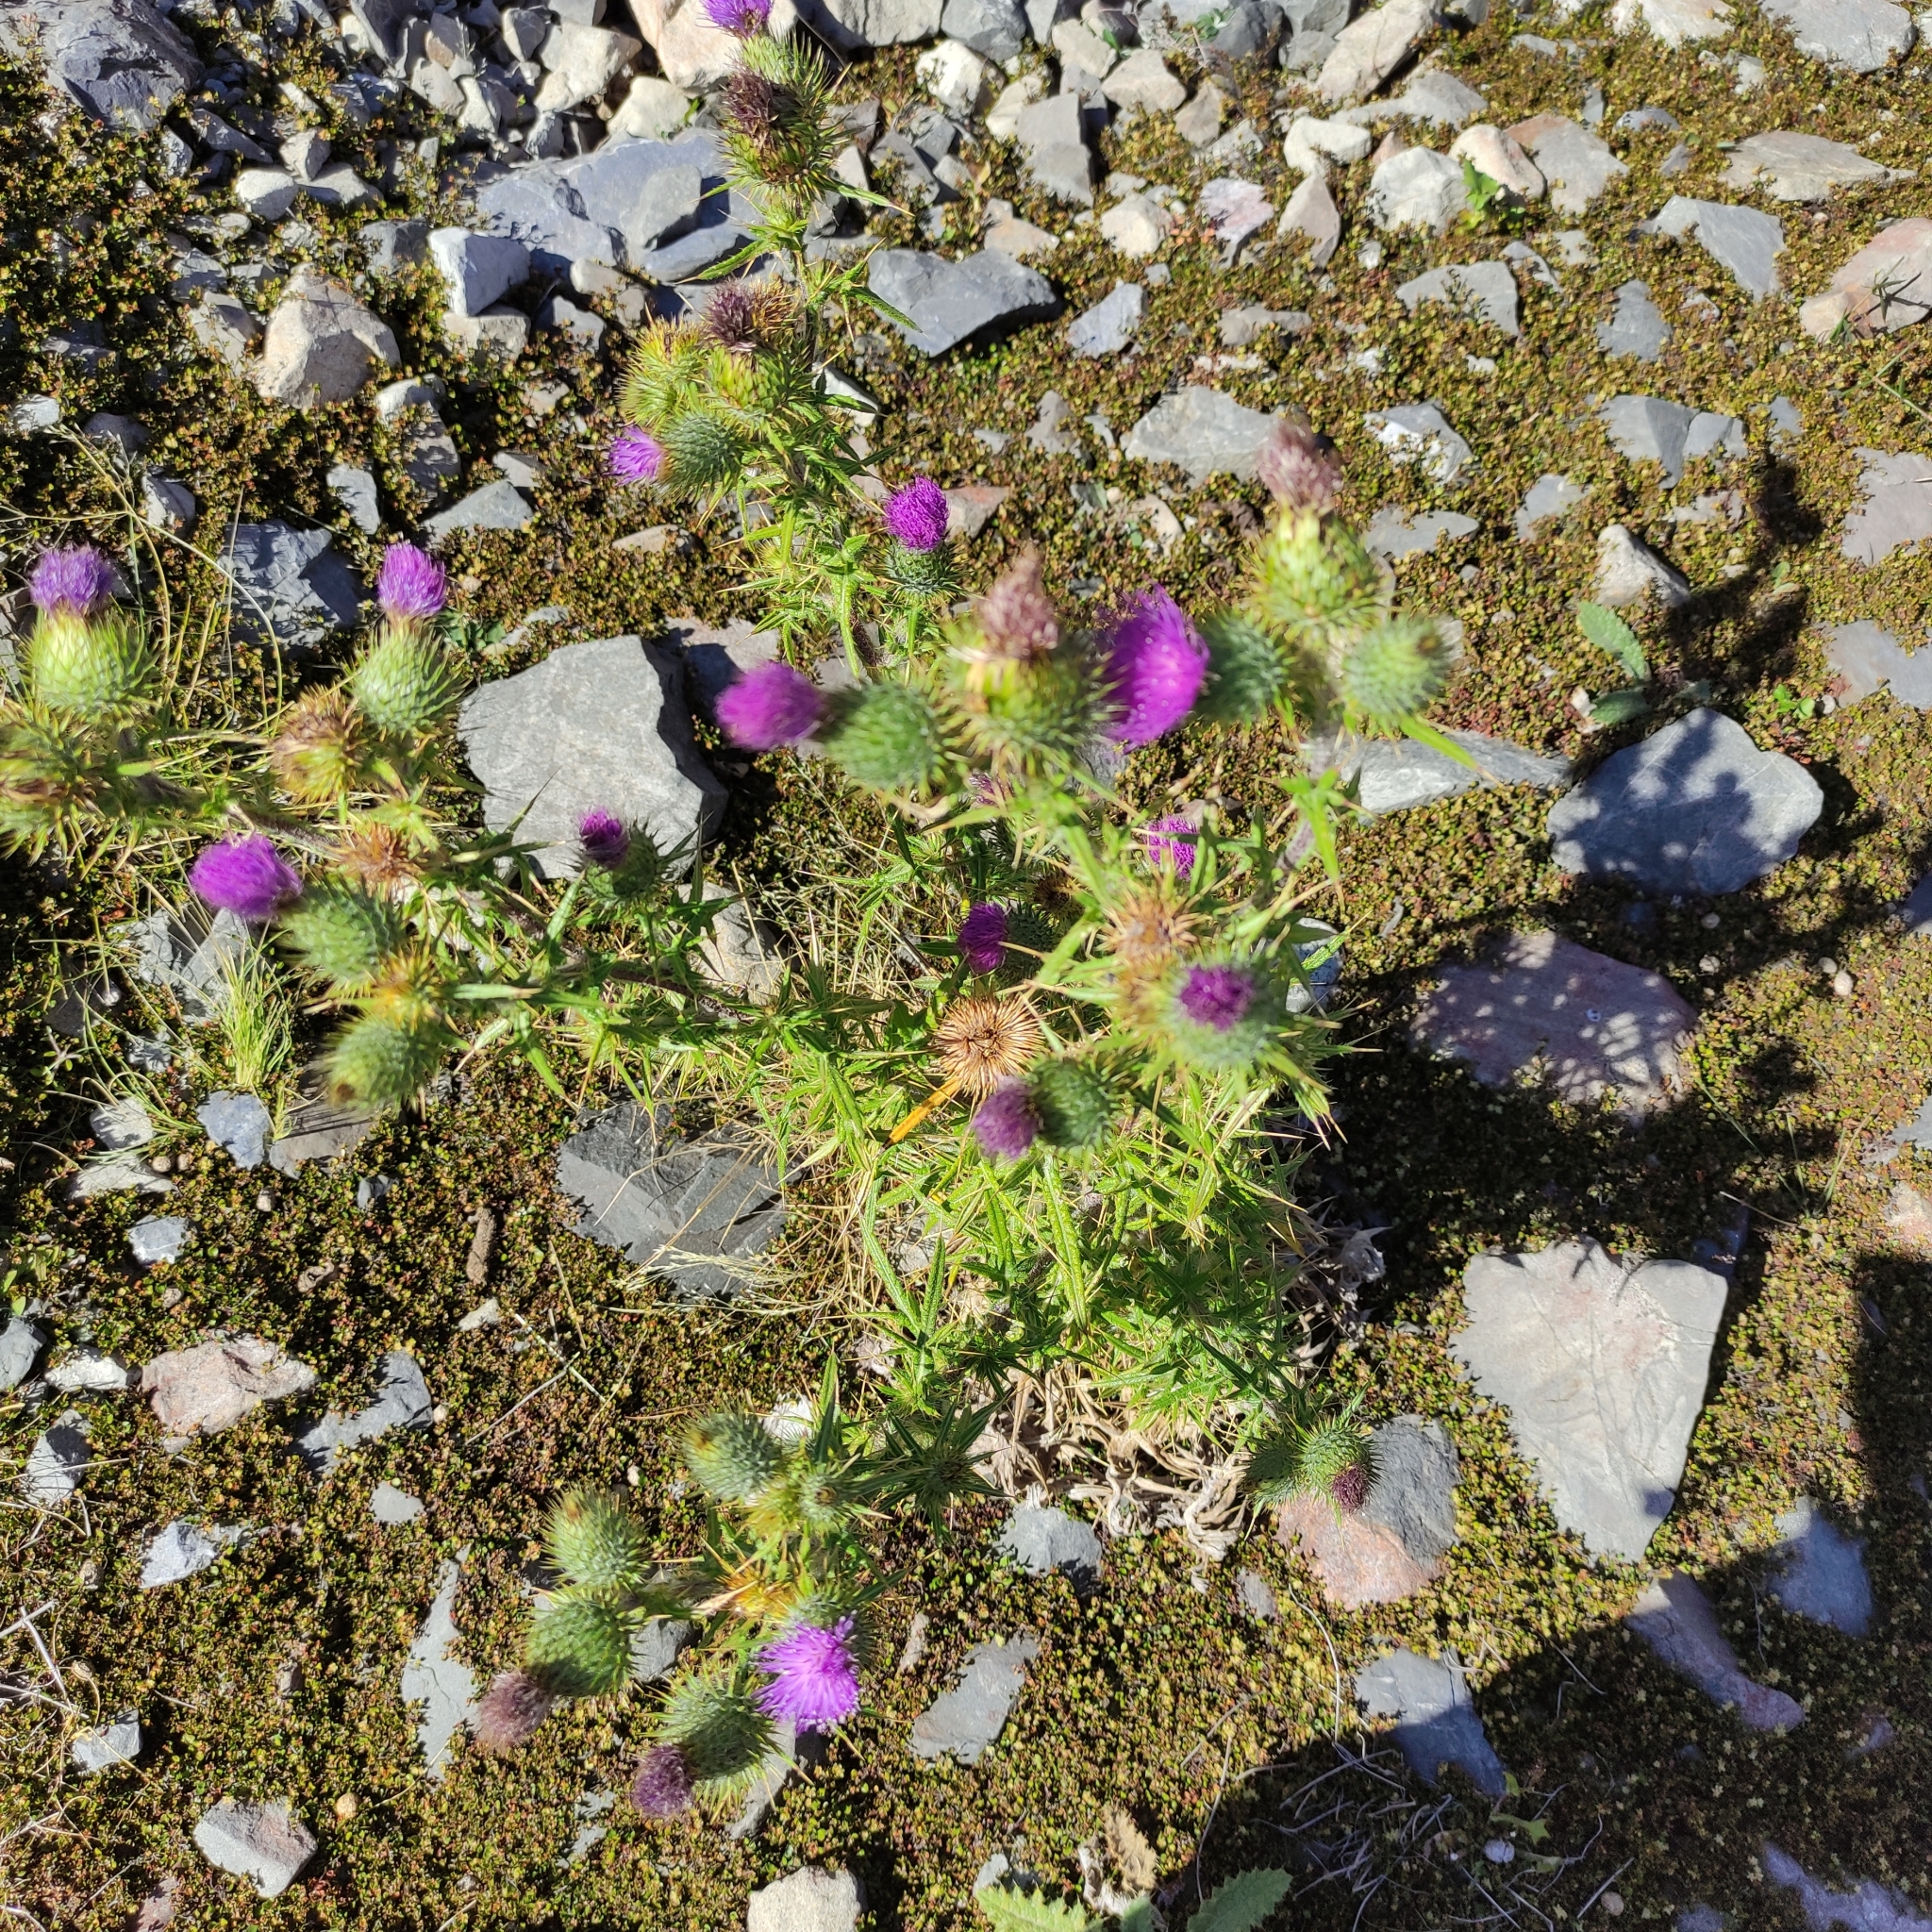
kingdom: Plantae
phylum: Tracheophyta
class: Magnoliopsida
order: Asterales
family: Asteraceae
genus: Cirsium
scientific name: Cirsium vulgare
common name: Bull thistle
